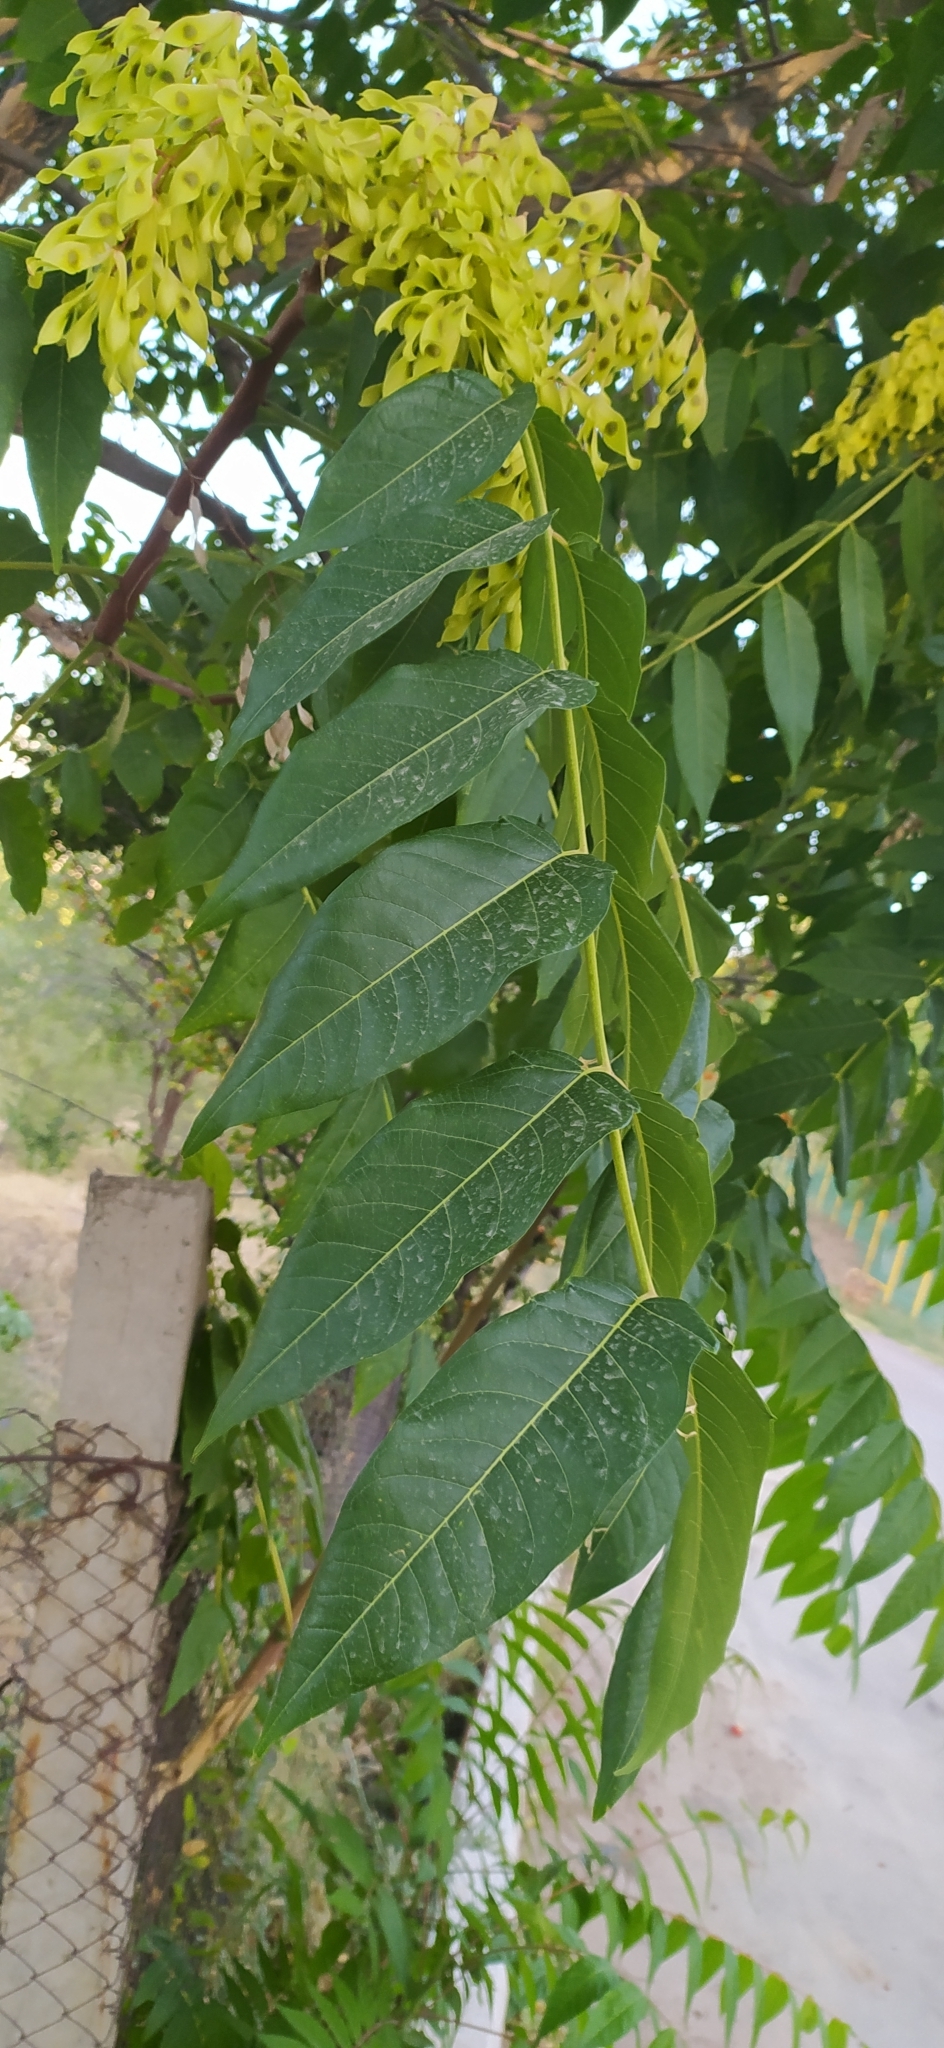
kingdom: Plantae
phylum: Tracheophyta
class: Magnoliopsida
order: Sapindales
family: Simaroubaceae
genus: Ailanthus
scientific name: Ailanthus altissima
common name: Tree-of-heaven
